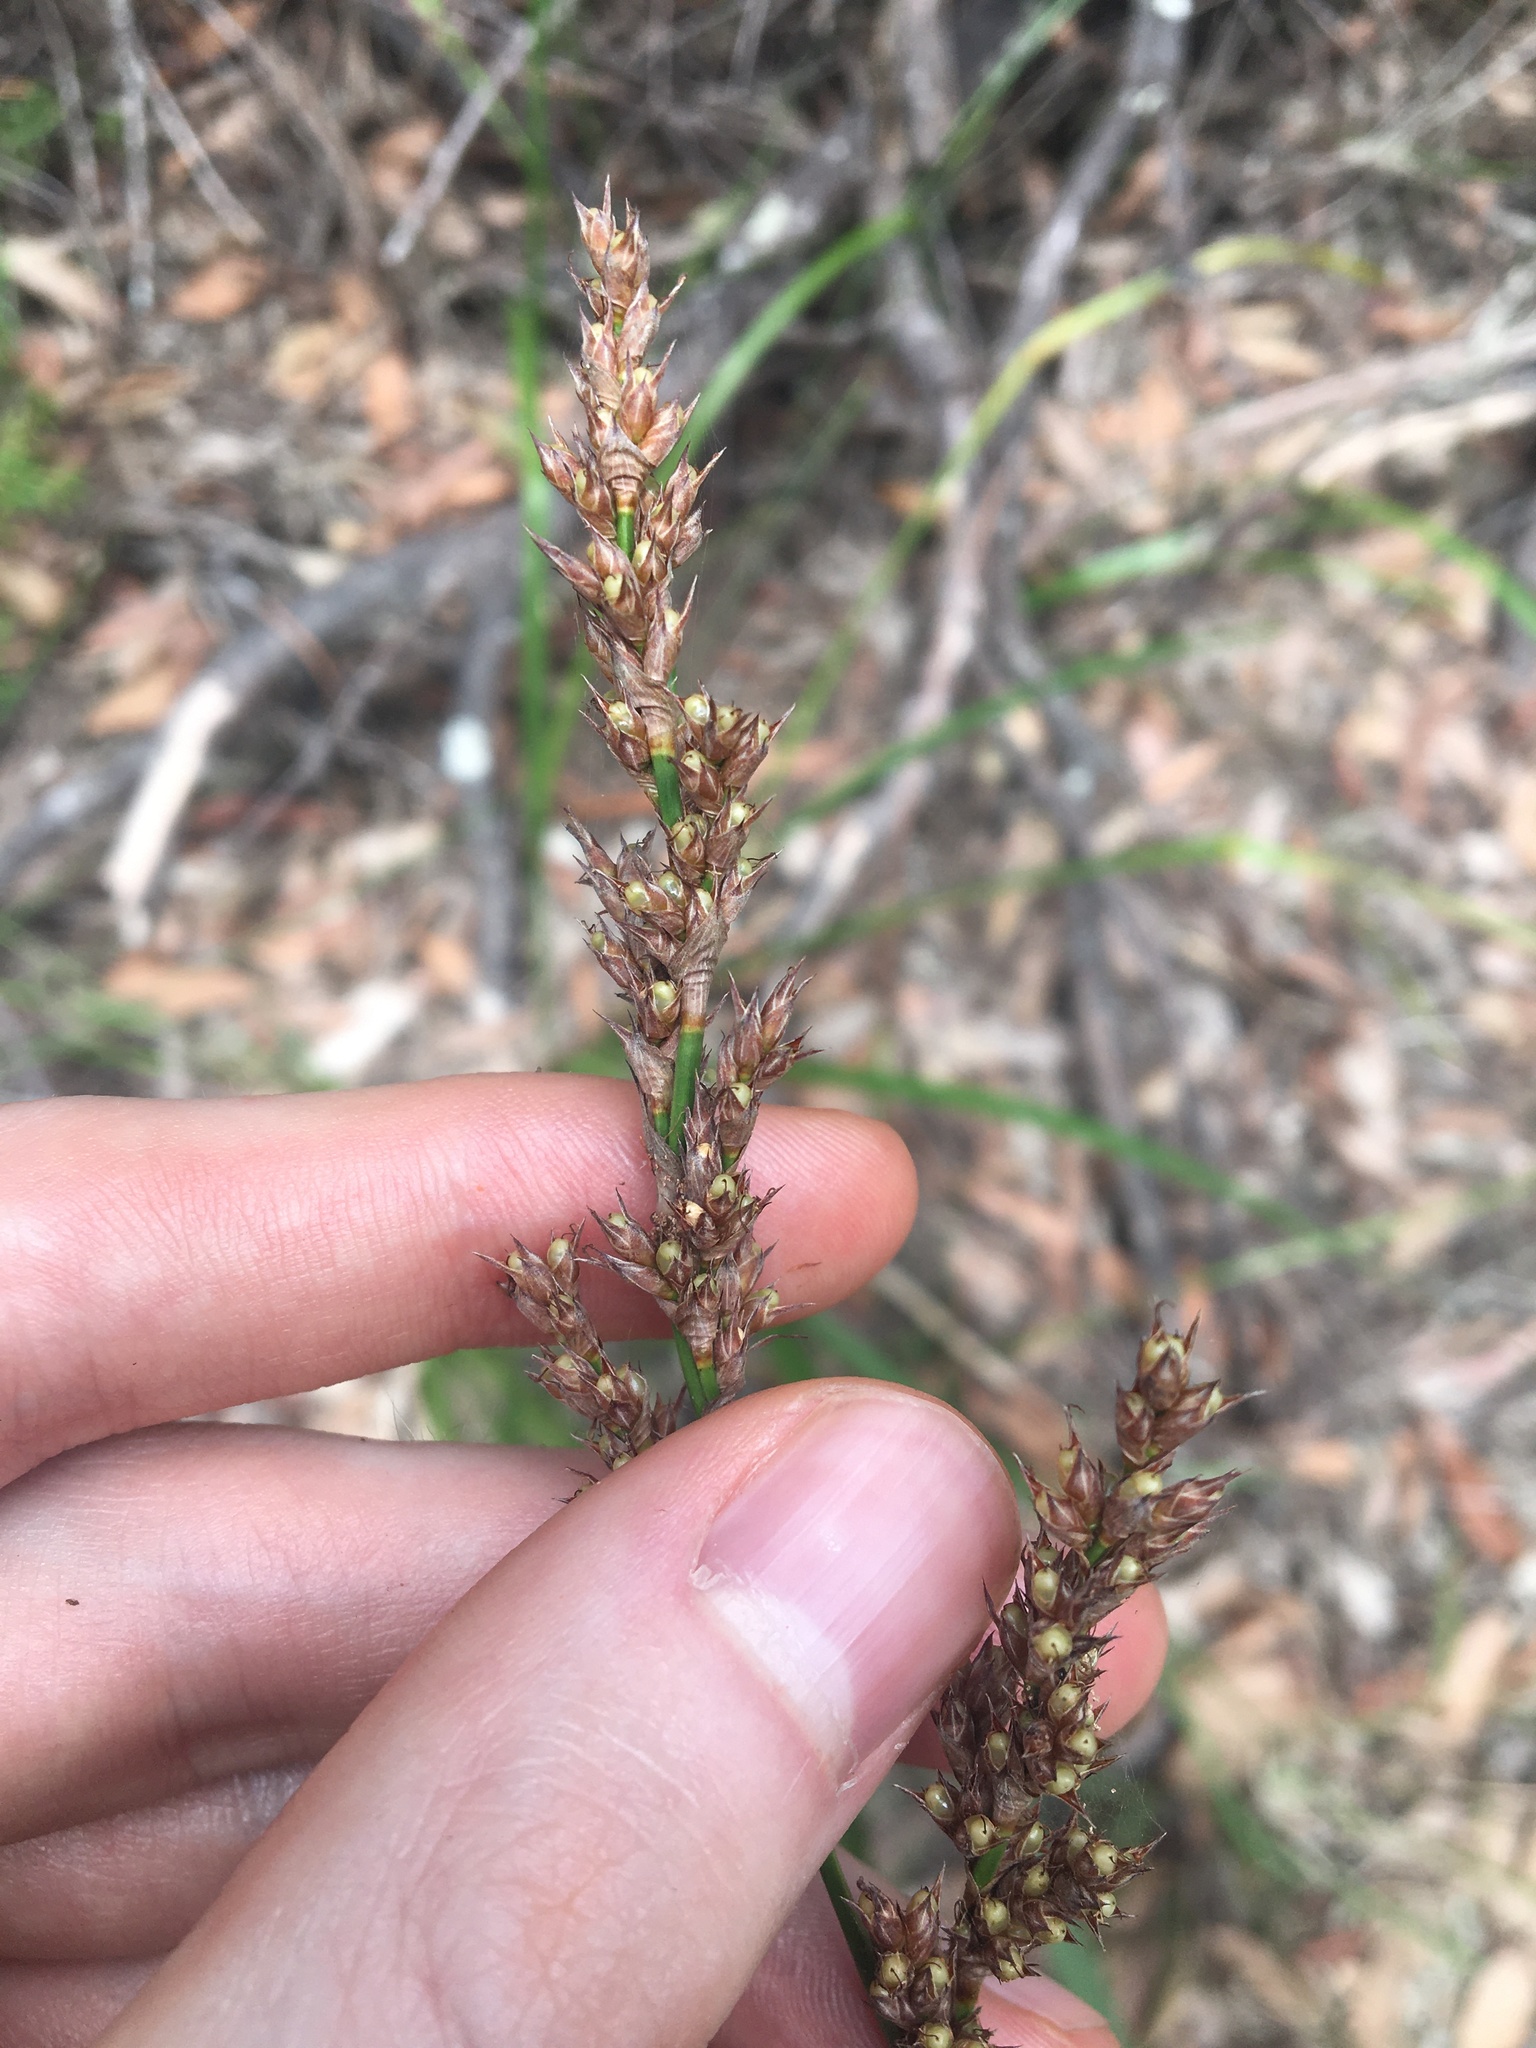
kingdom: Plantae
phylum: Tracheophyta
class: Liliopsida
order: Poales
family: Cyperaceae
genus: Lepidosperma
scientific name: Lepidosperma laterale
